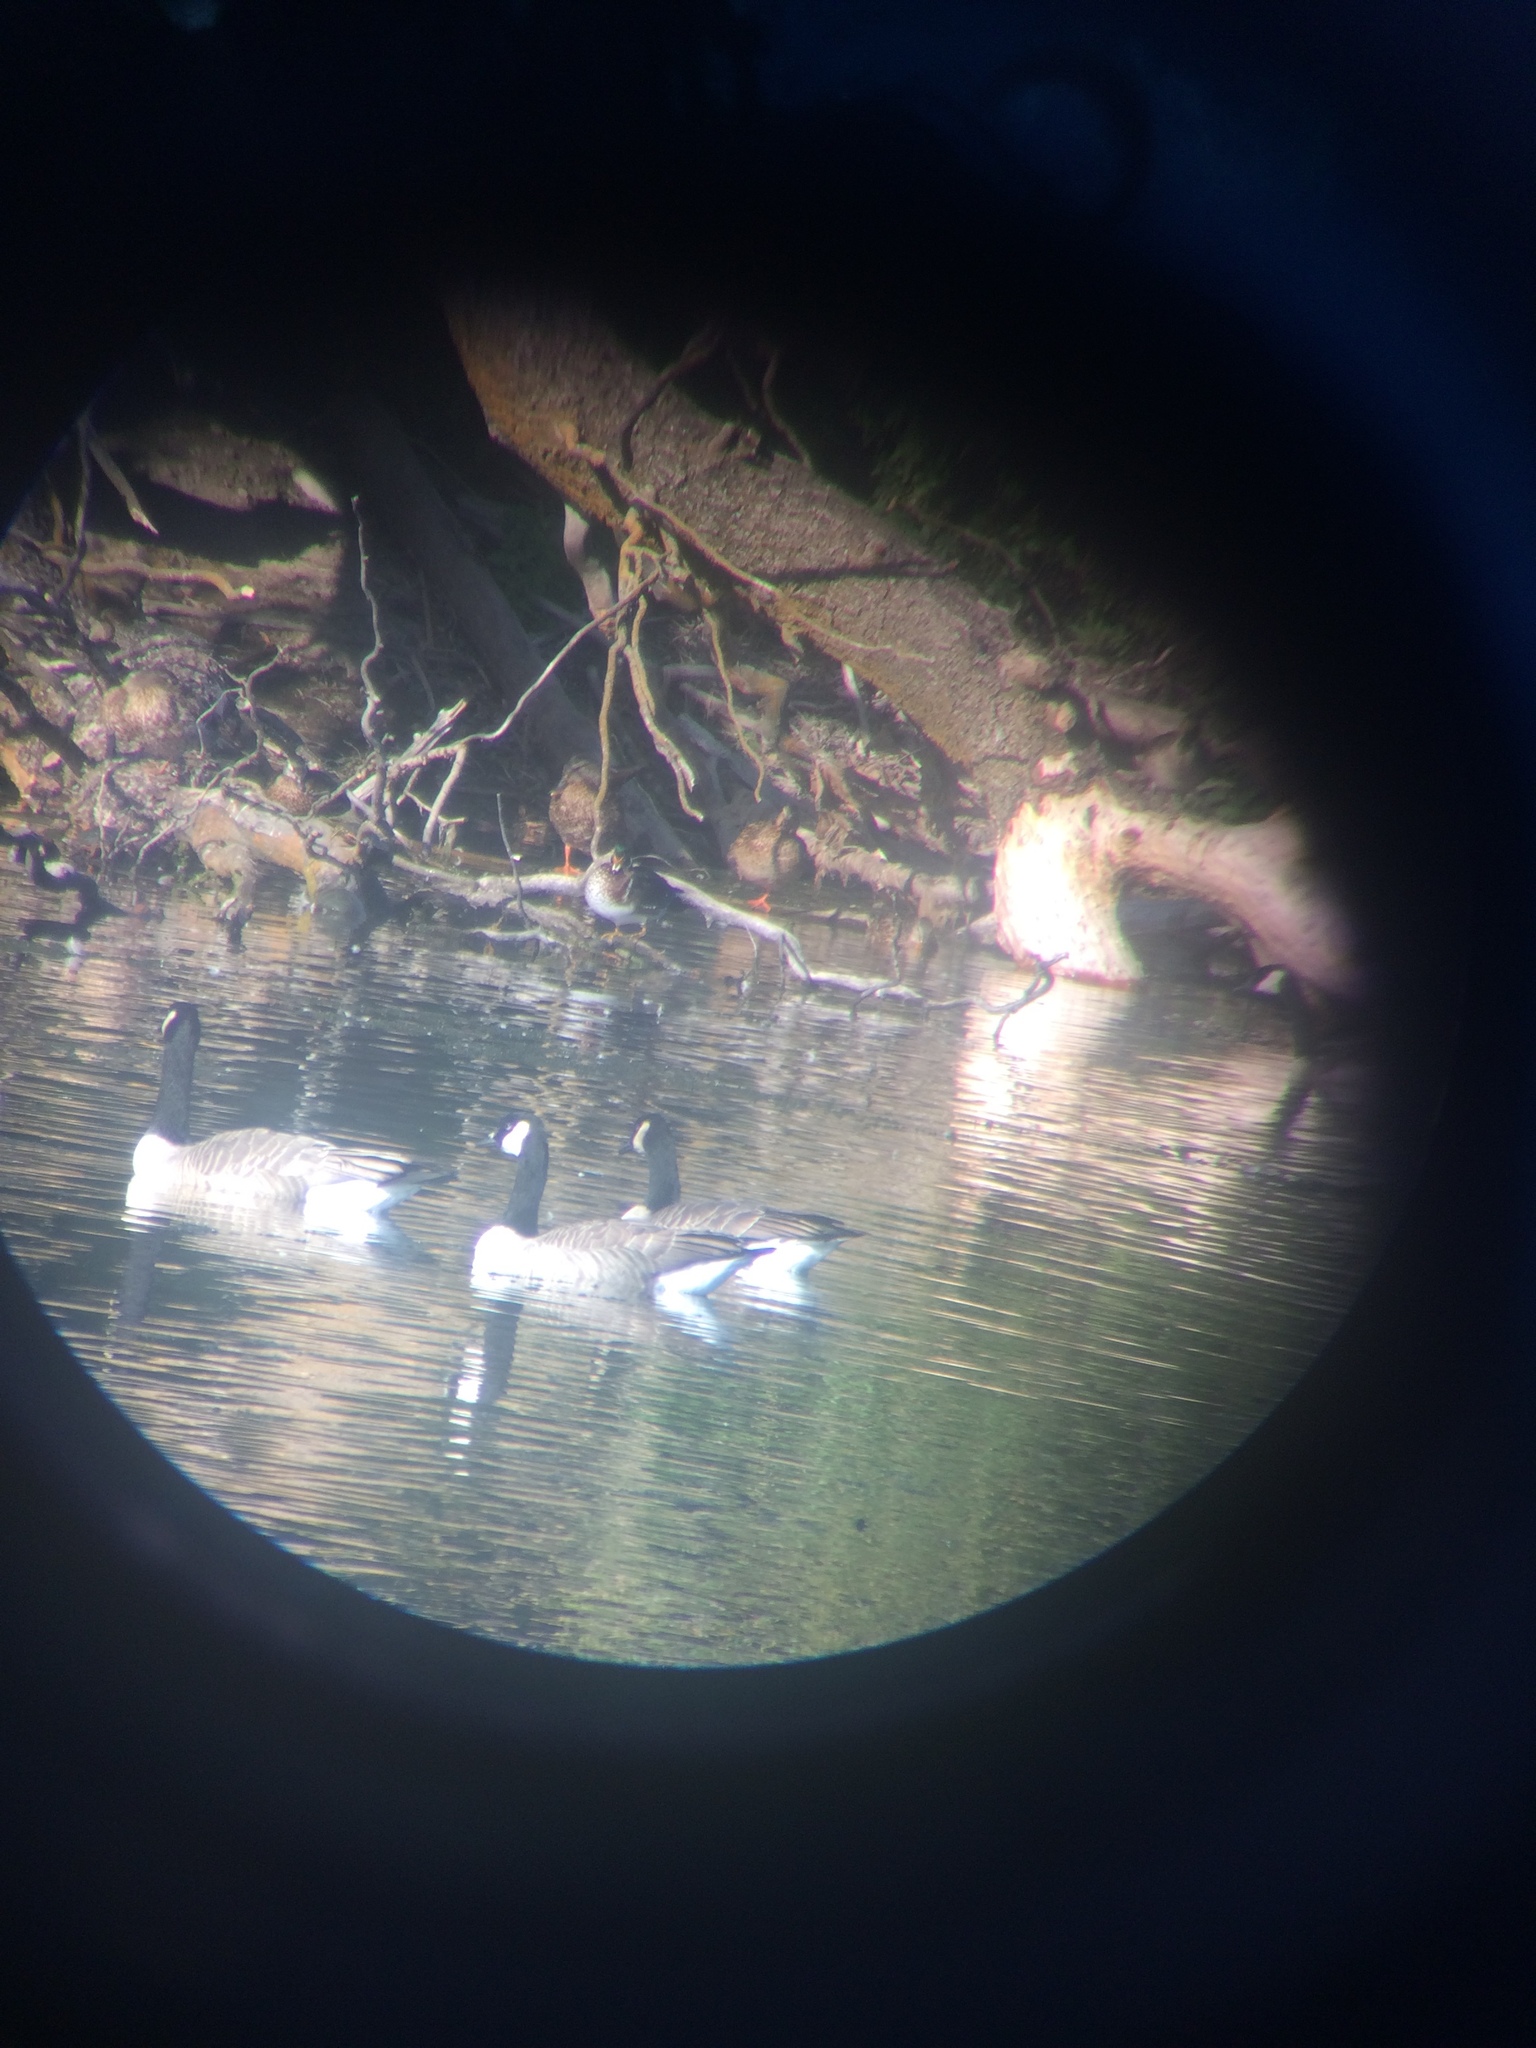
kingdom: Animalia
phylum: Chordata
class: Aves
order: Anseriformes
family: Anatidae
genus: Branta
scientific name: Branta canadensis
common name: Canada goose
